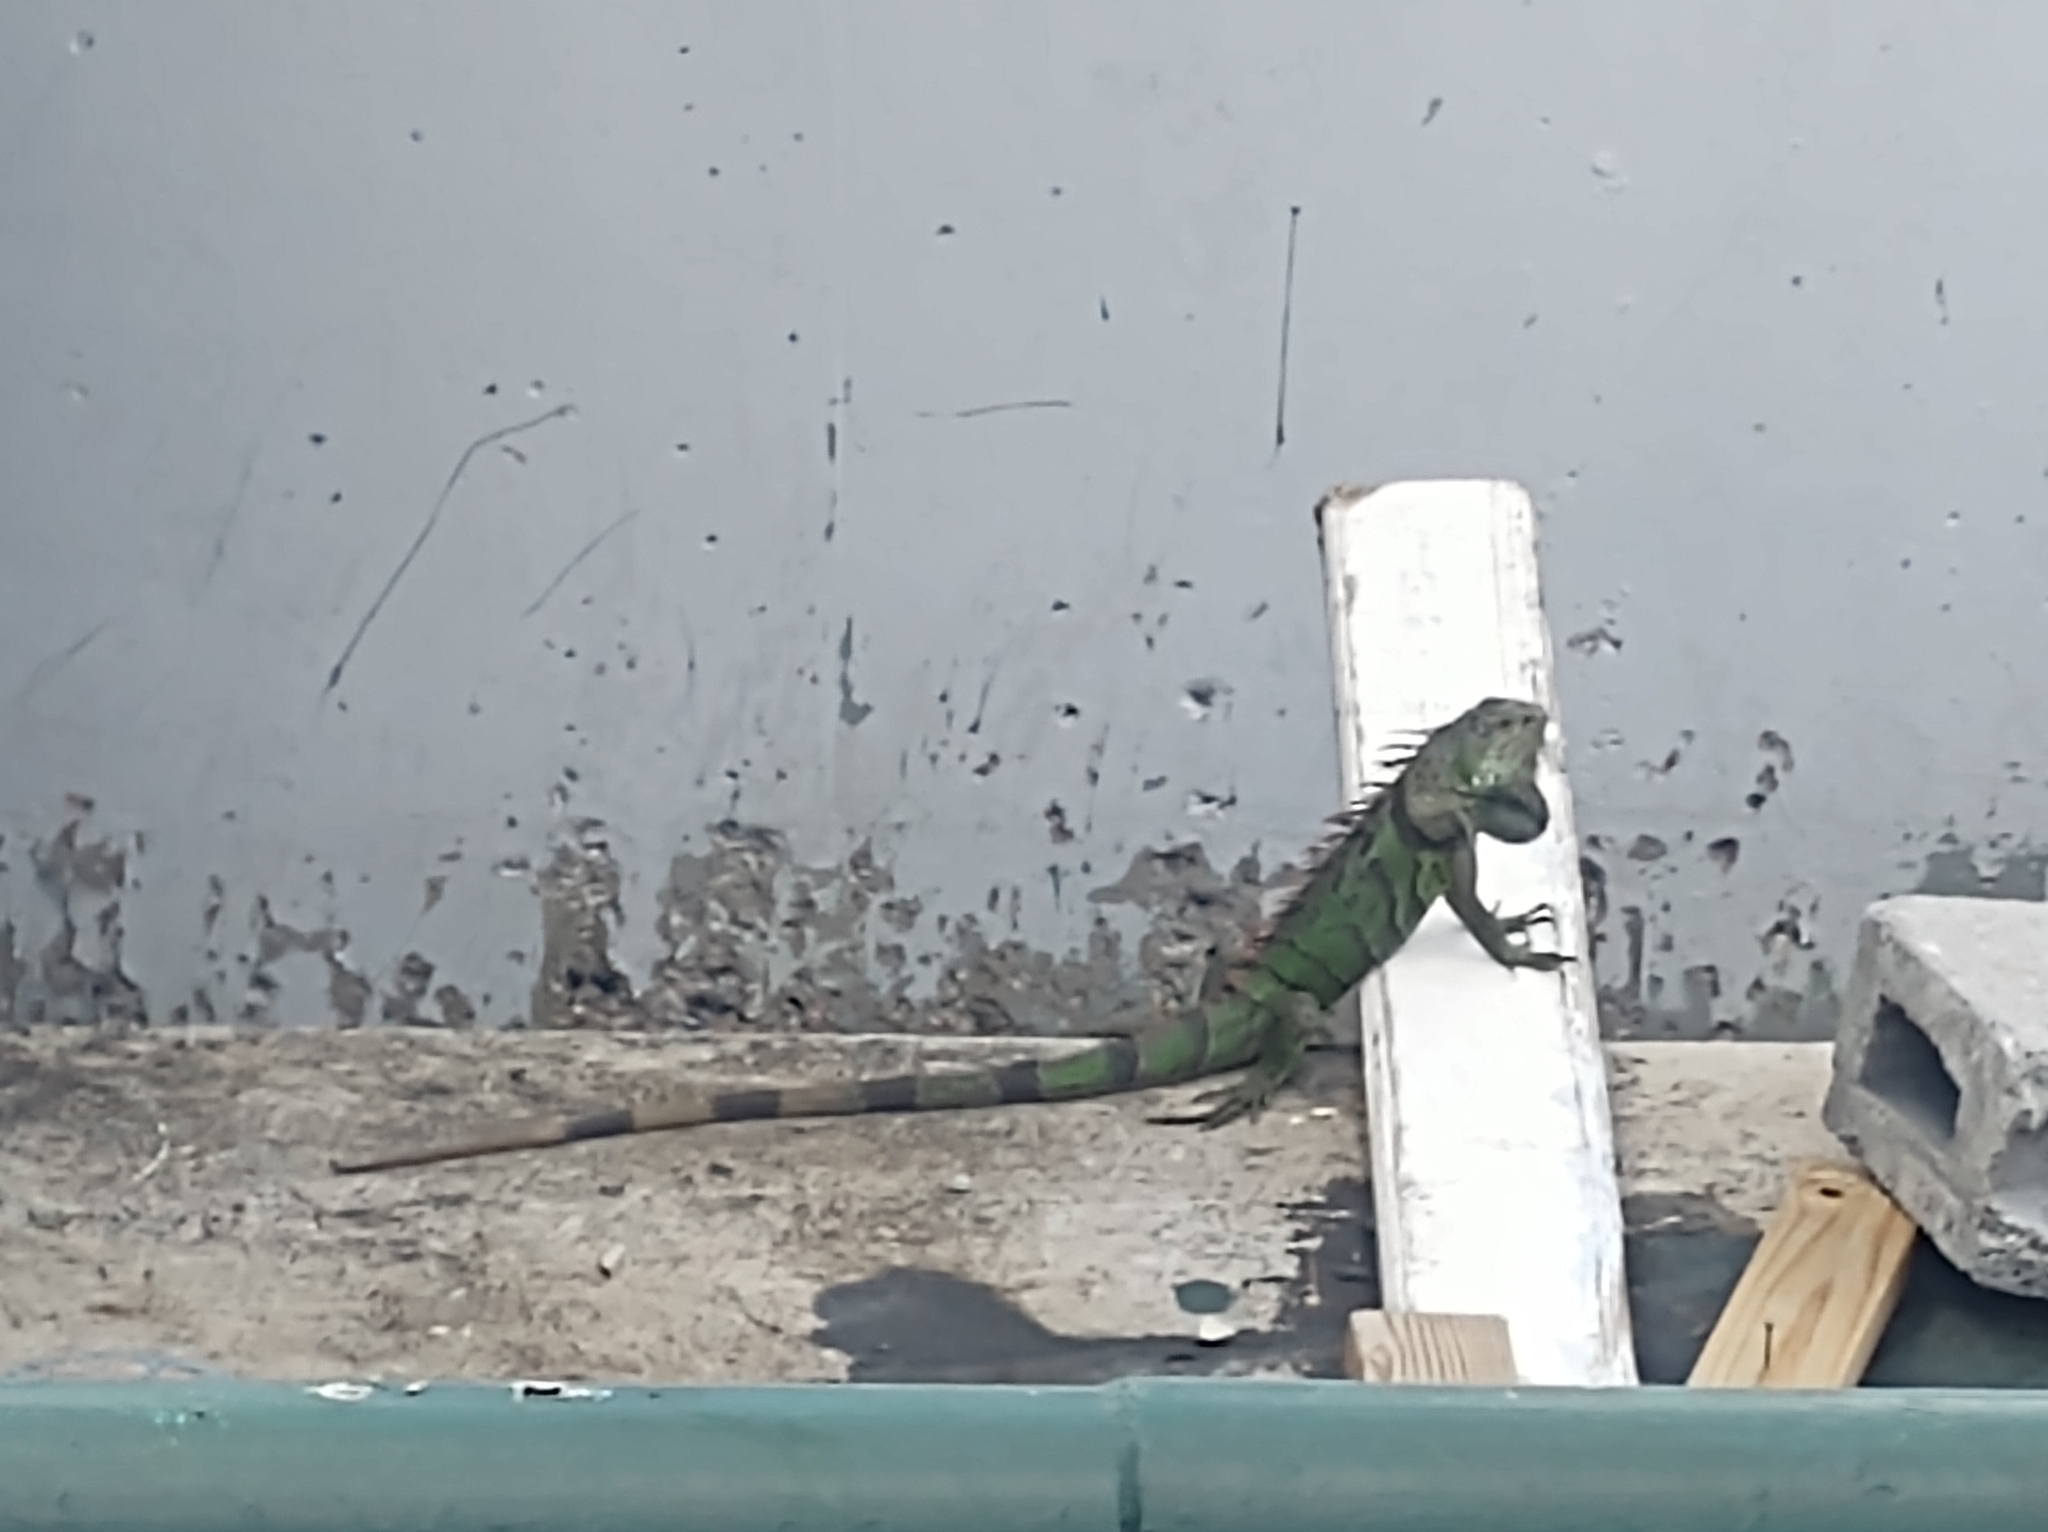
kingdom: Animalia
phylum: Chordata
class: Squamata
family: Iguanidae
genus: Iguana
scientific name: Iguana iguana
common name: Green iguana
